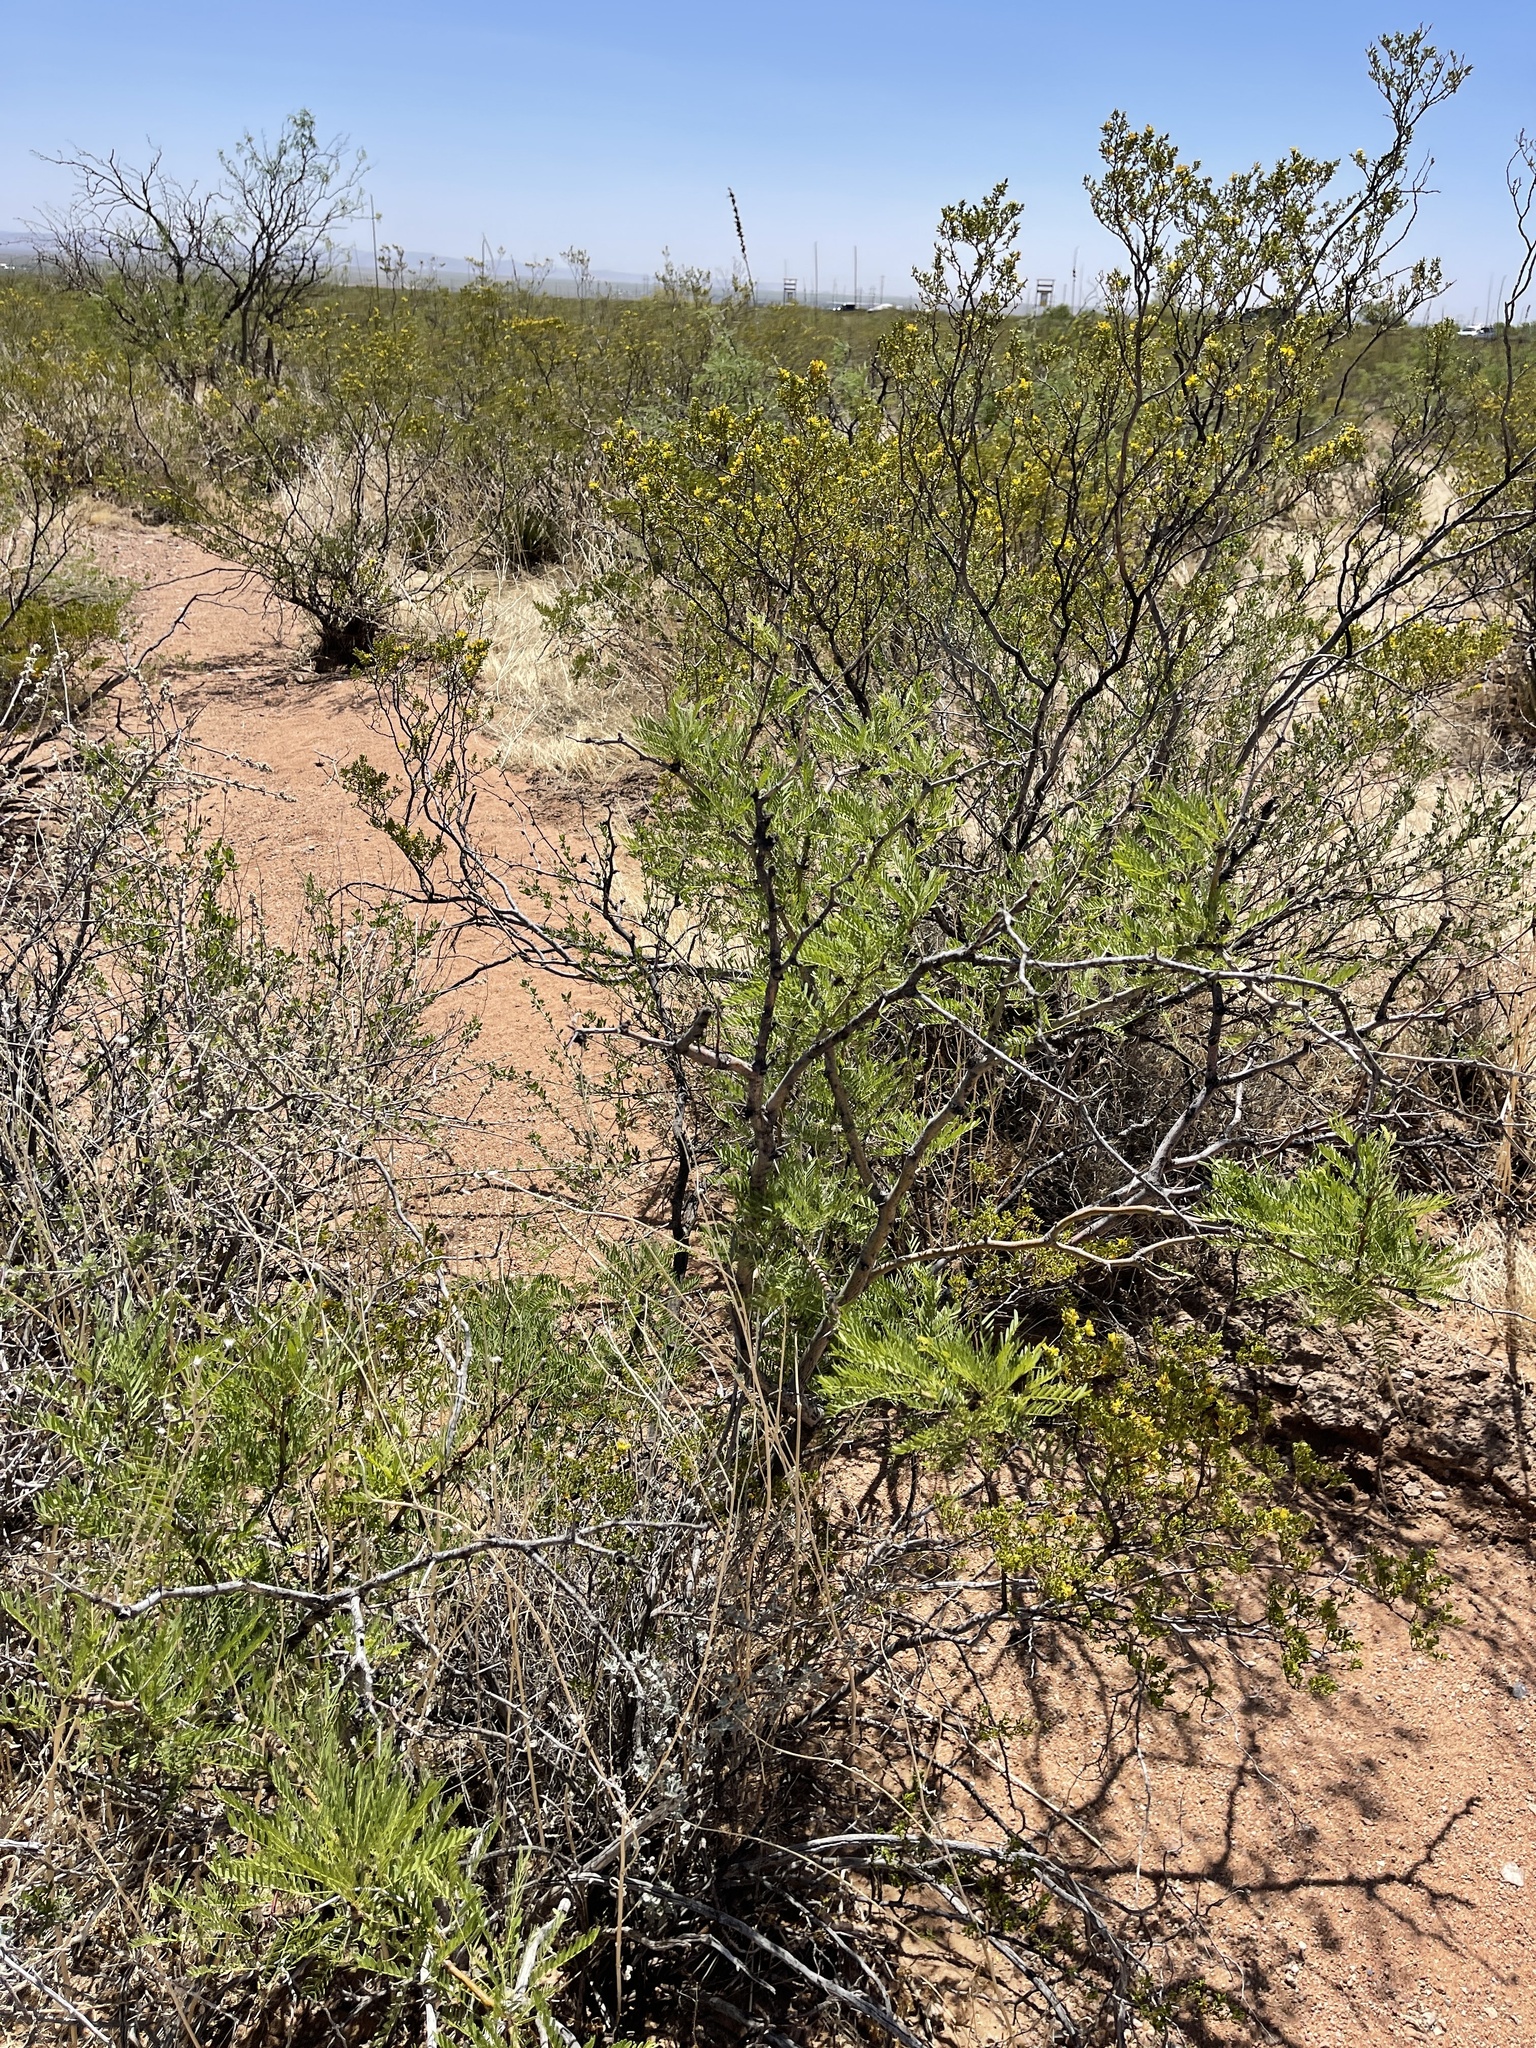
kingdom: Plantae
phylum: Tracheophyta
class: Magnoliopsida
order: Fabales
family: Fabaceae
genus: Prosopis
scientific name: Prosopis glandulosa
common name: Honey mesquite
